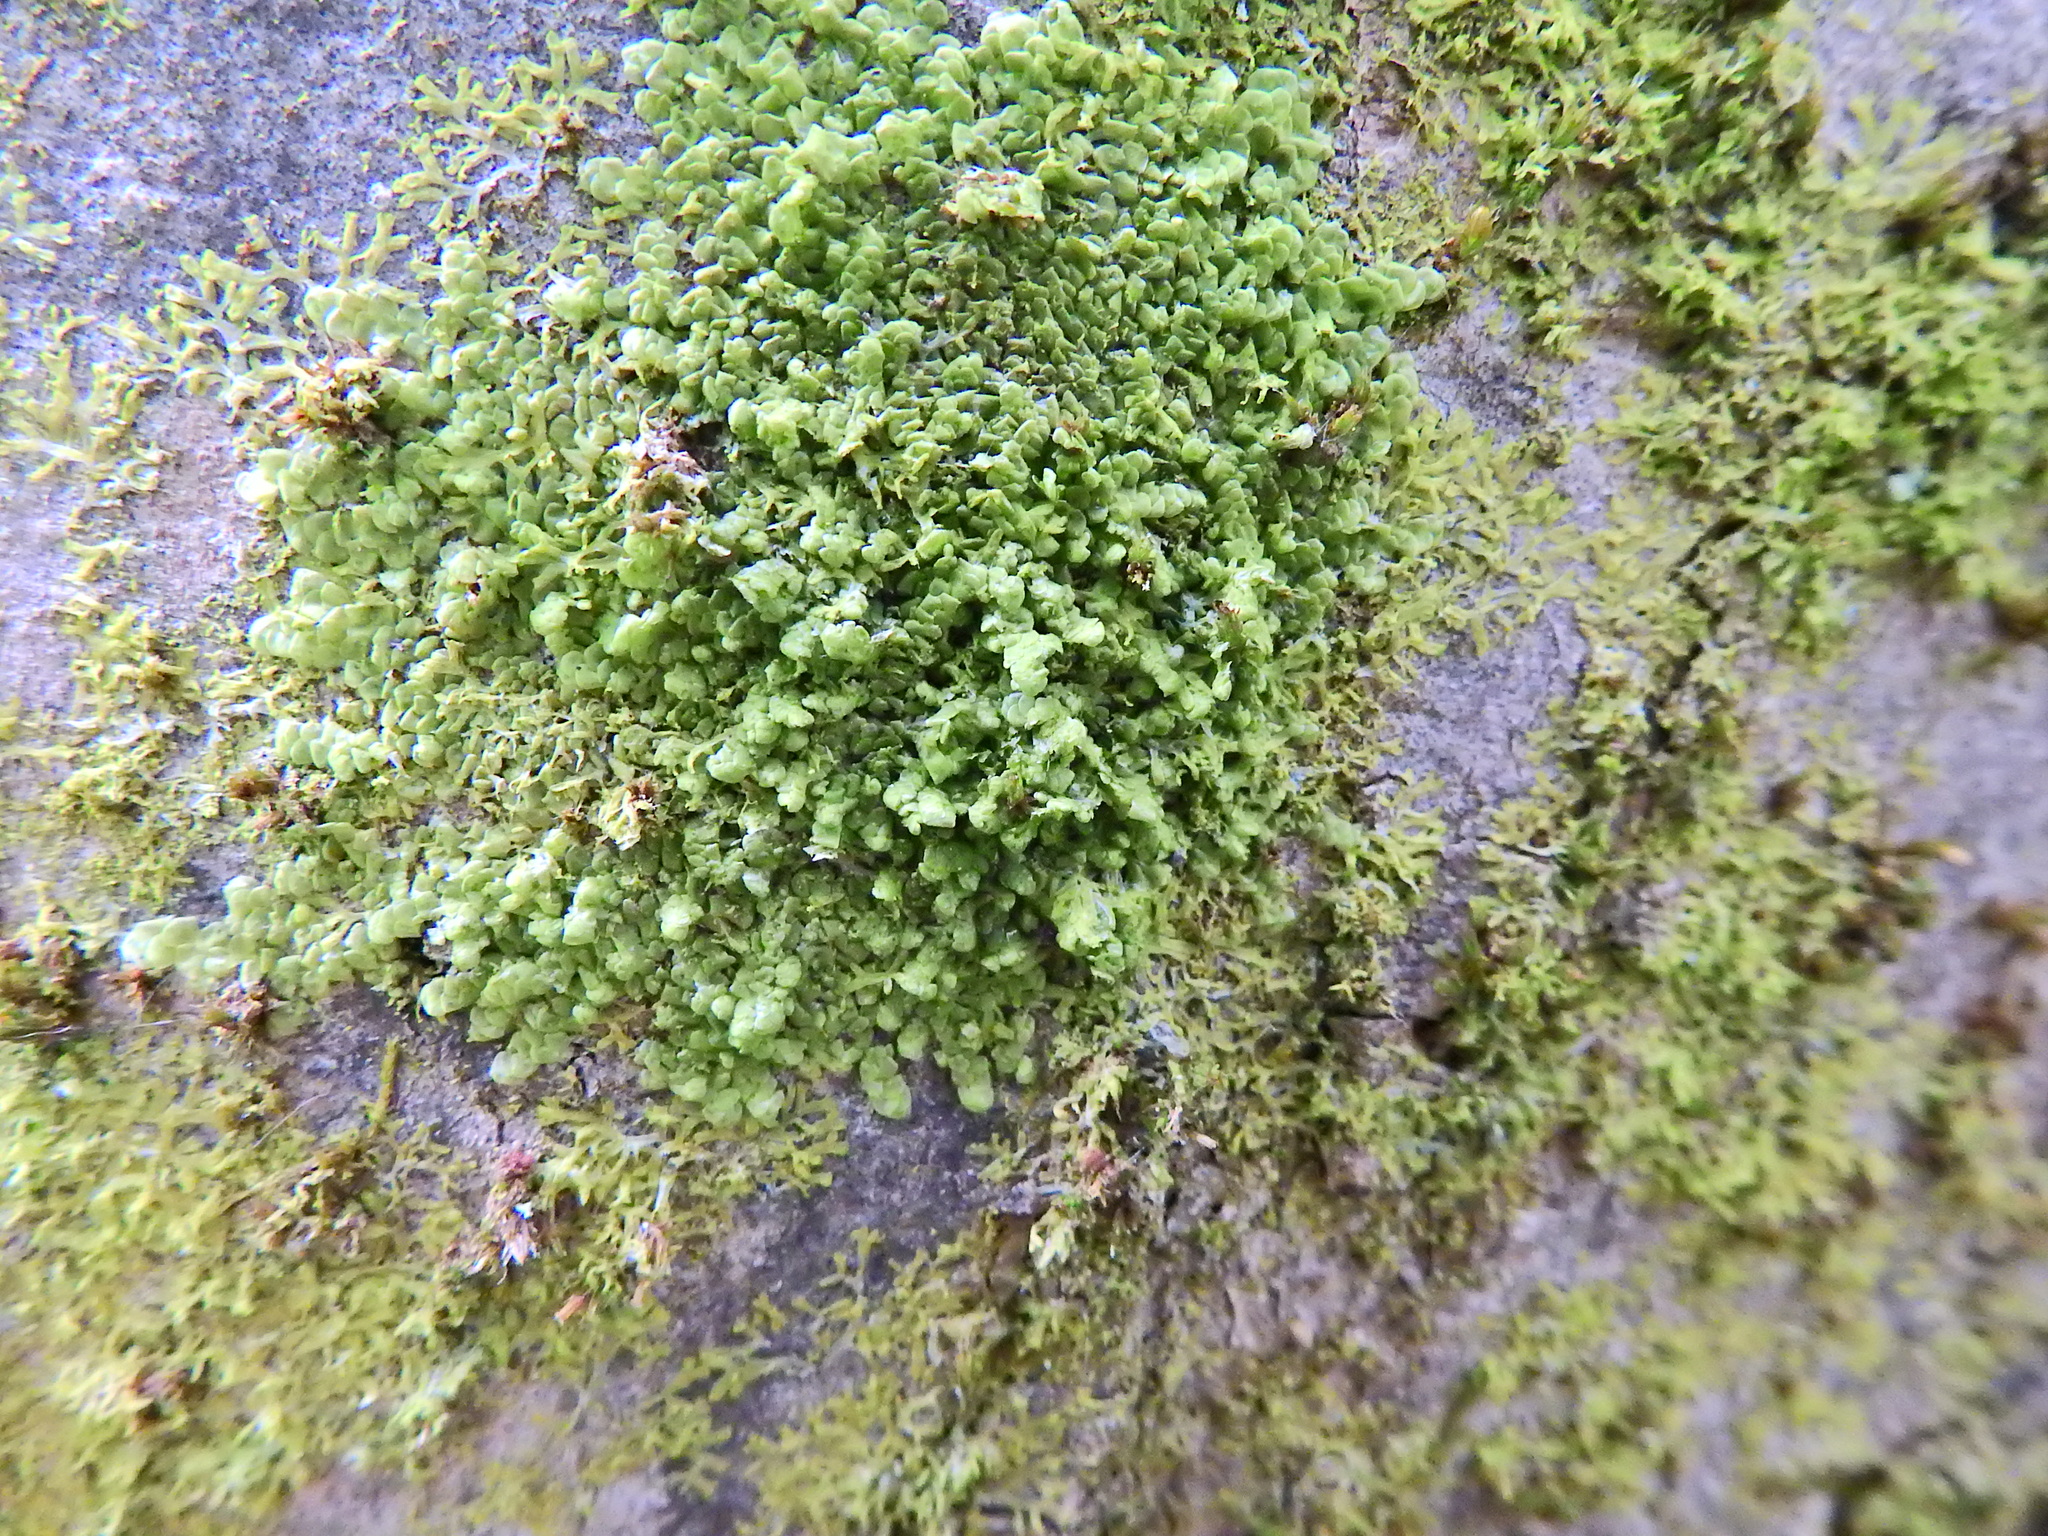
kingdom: Plantae
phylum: Marchantiophyta
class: Jungermanniopsida
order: Porellales
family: Radulaceae
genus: Radula
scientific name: Radula complanata
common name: Flat-leaved scalewort
